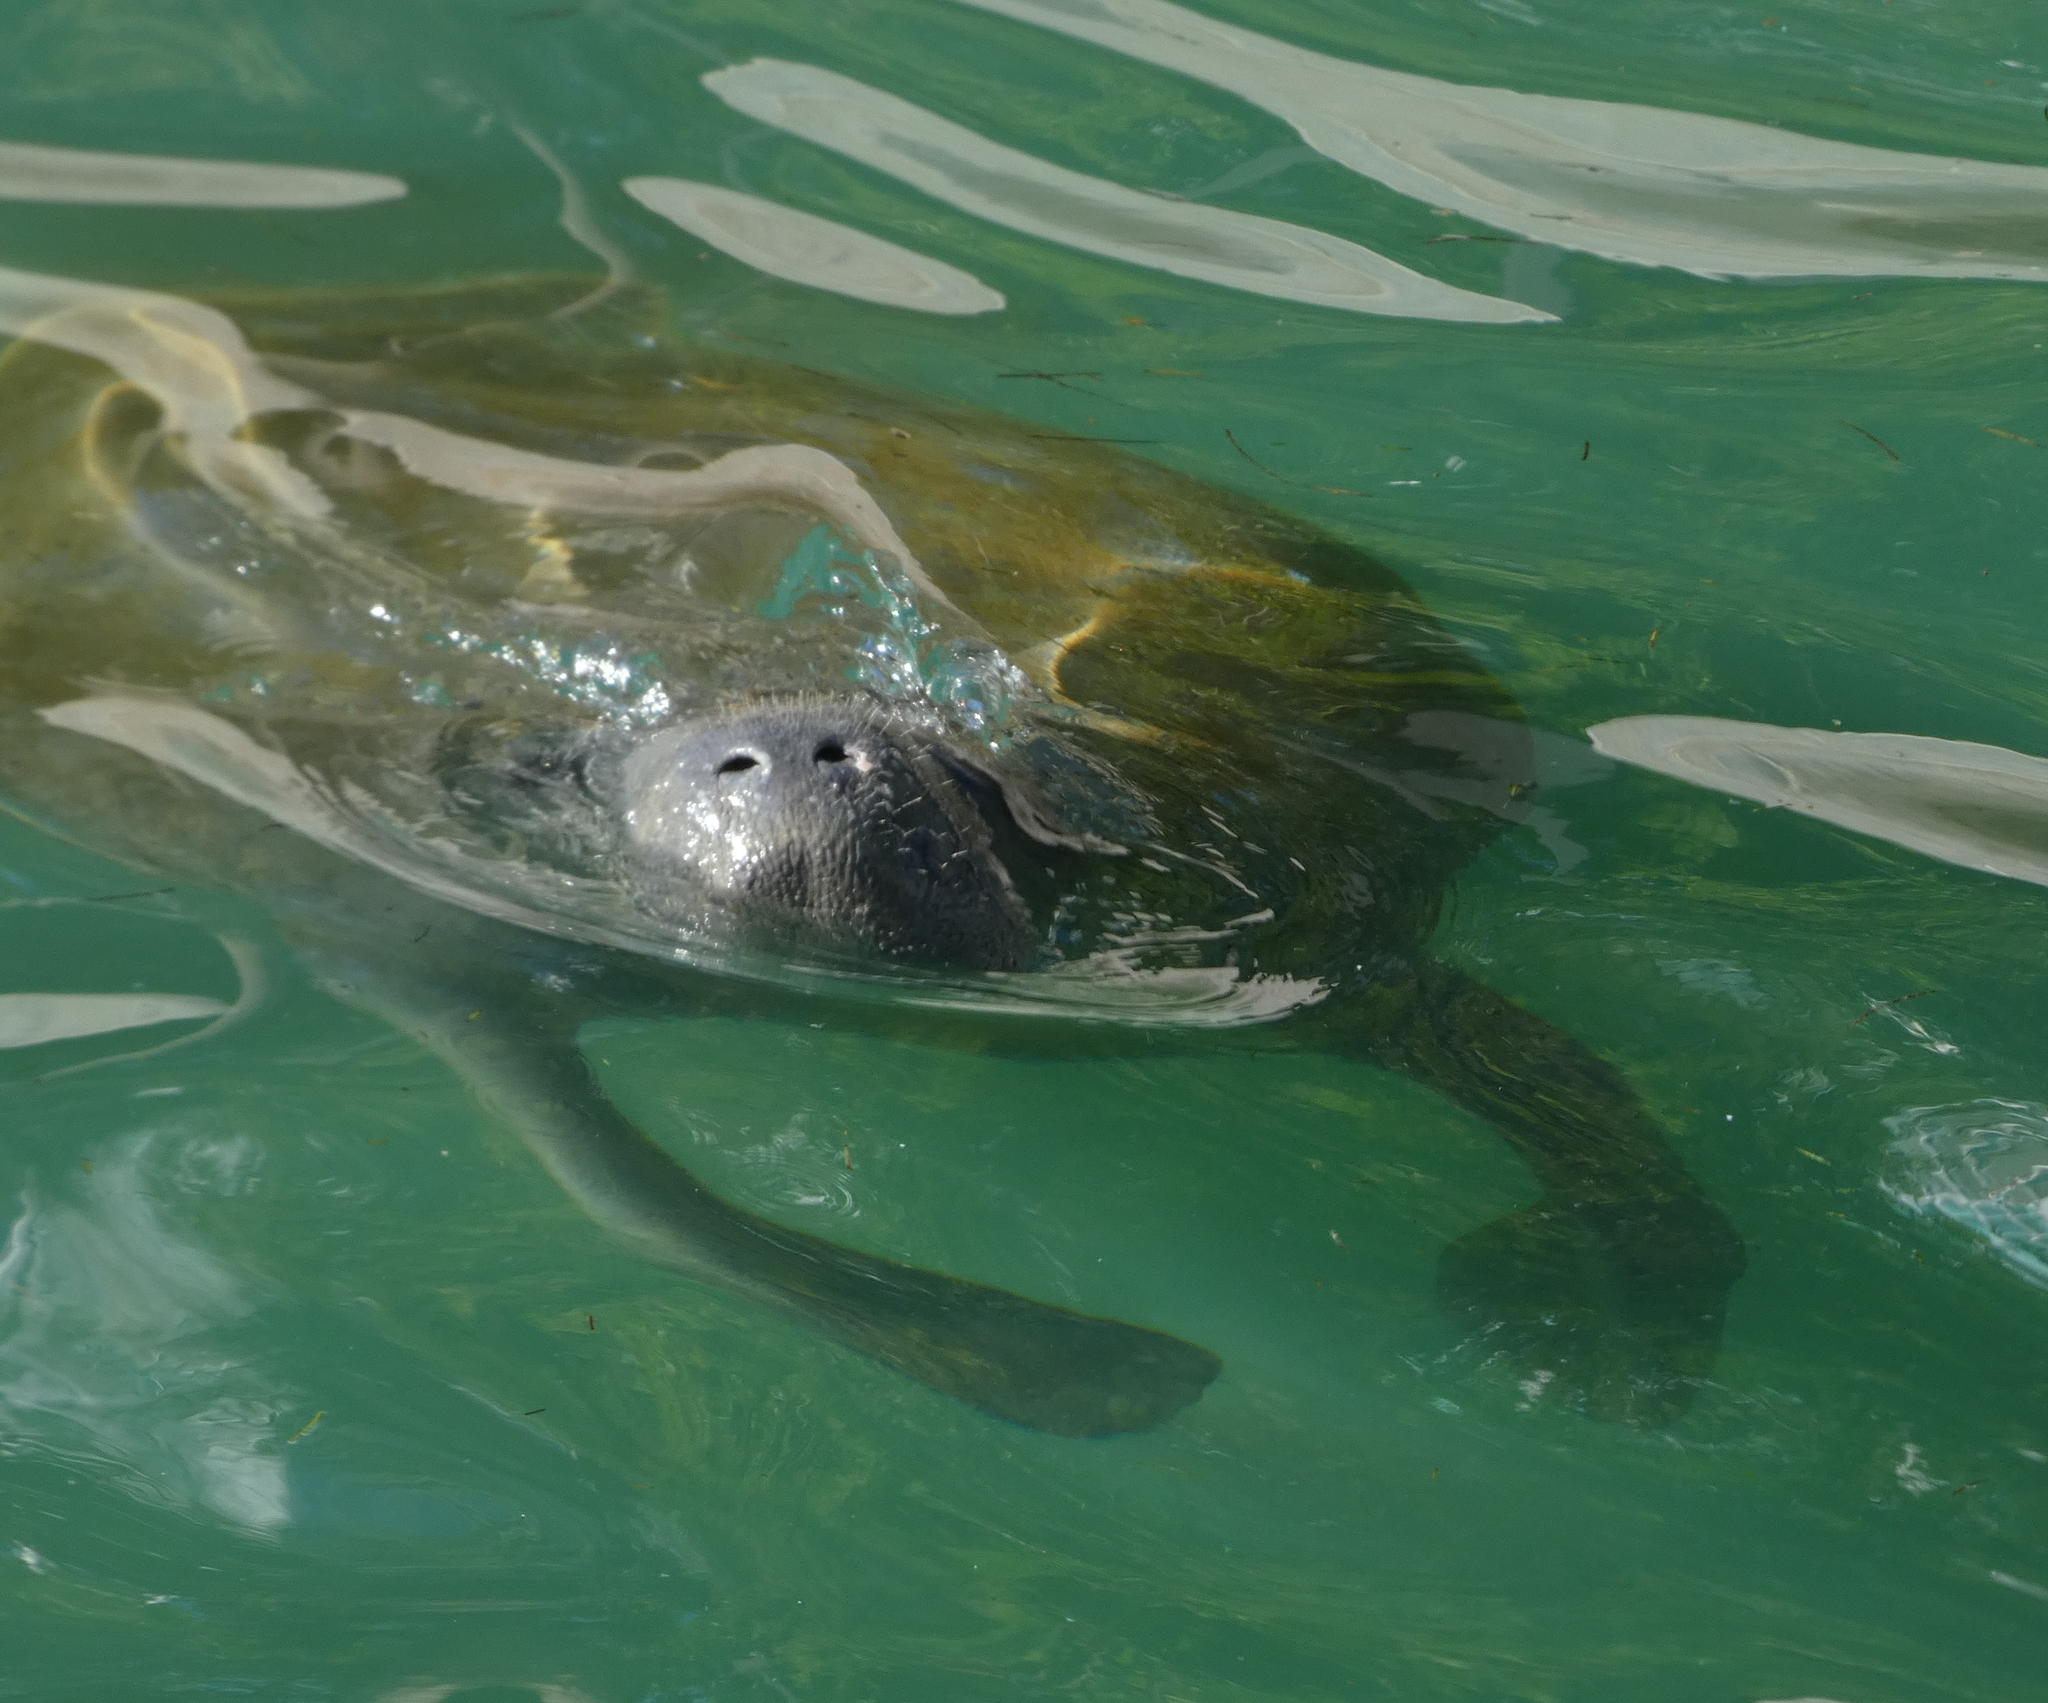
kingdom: Animalia
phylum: Chordata
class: Mammalia
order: Sirenia
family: Trichechidae
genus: Trichechus
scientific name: Trichechus manatus
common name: West indian manatee
